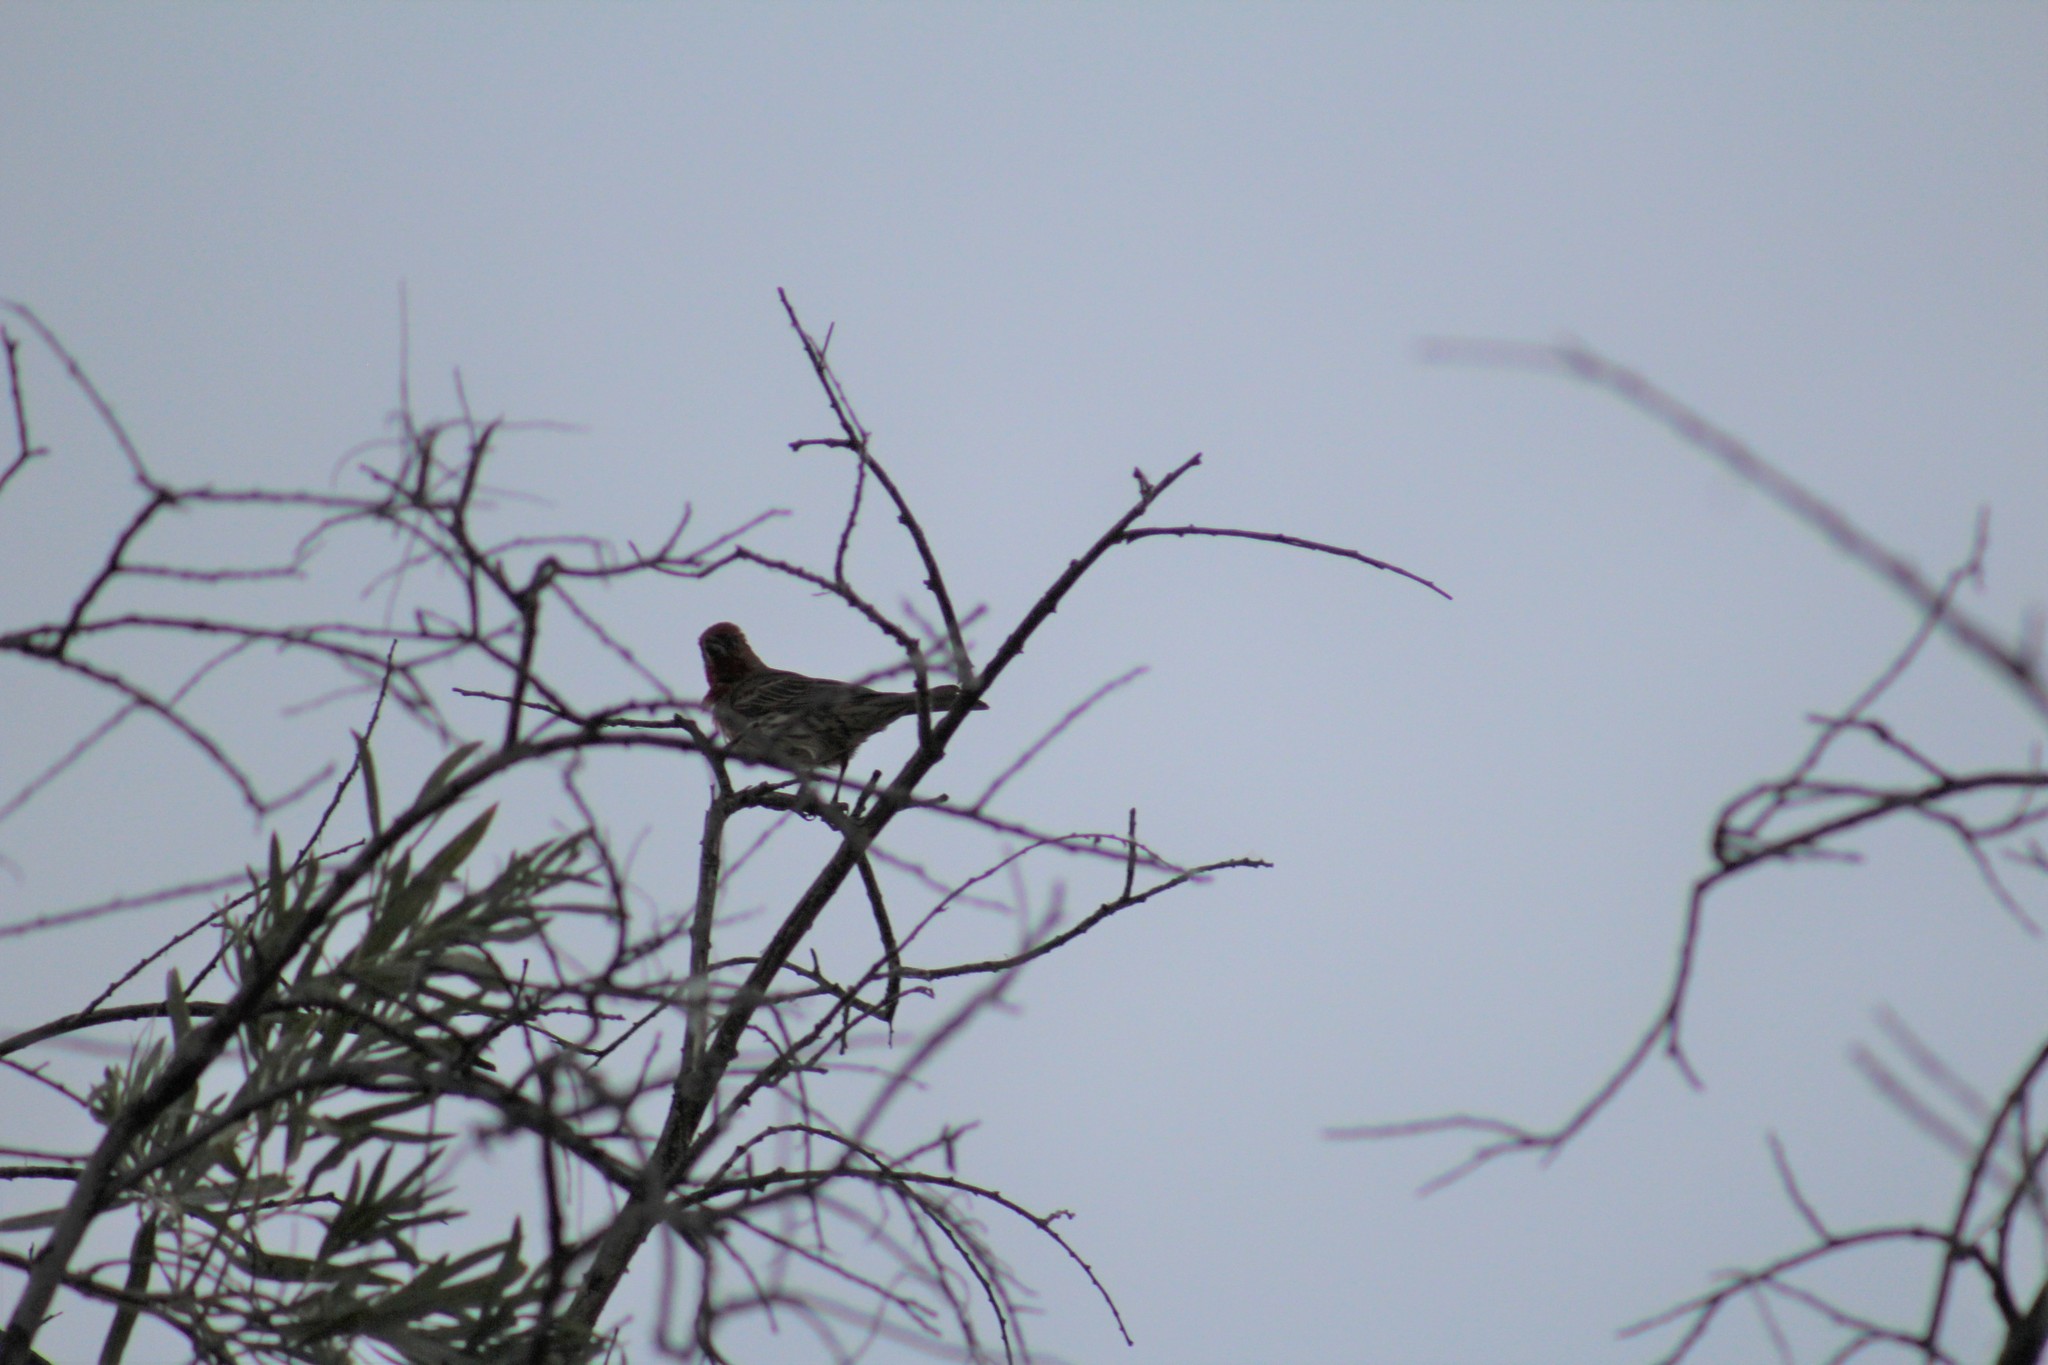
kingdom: Animalia
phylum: Chordata
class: Aves
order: Passeriformes
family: Fringillidae
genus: Haemorhous
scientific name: Haemorhous mexicanus
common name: House finch
